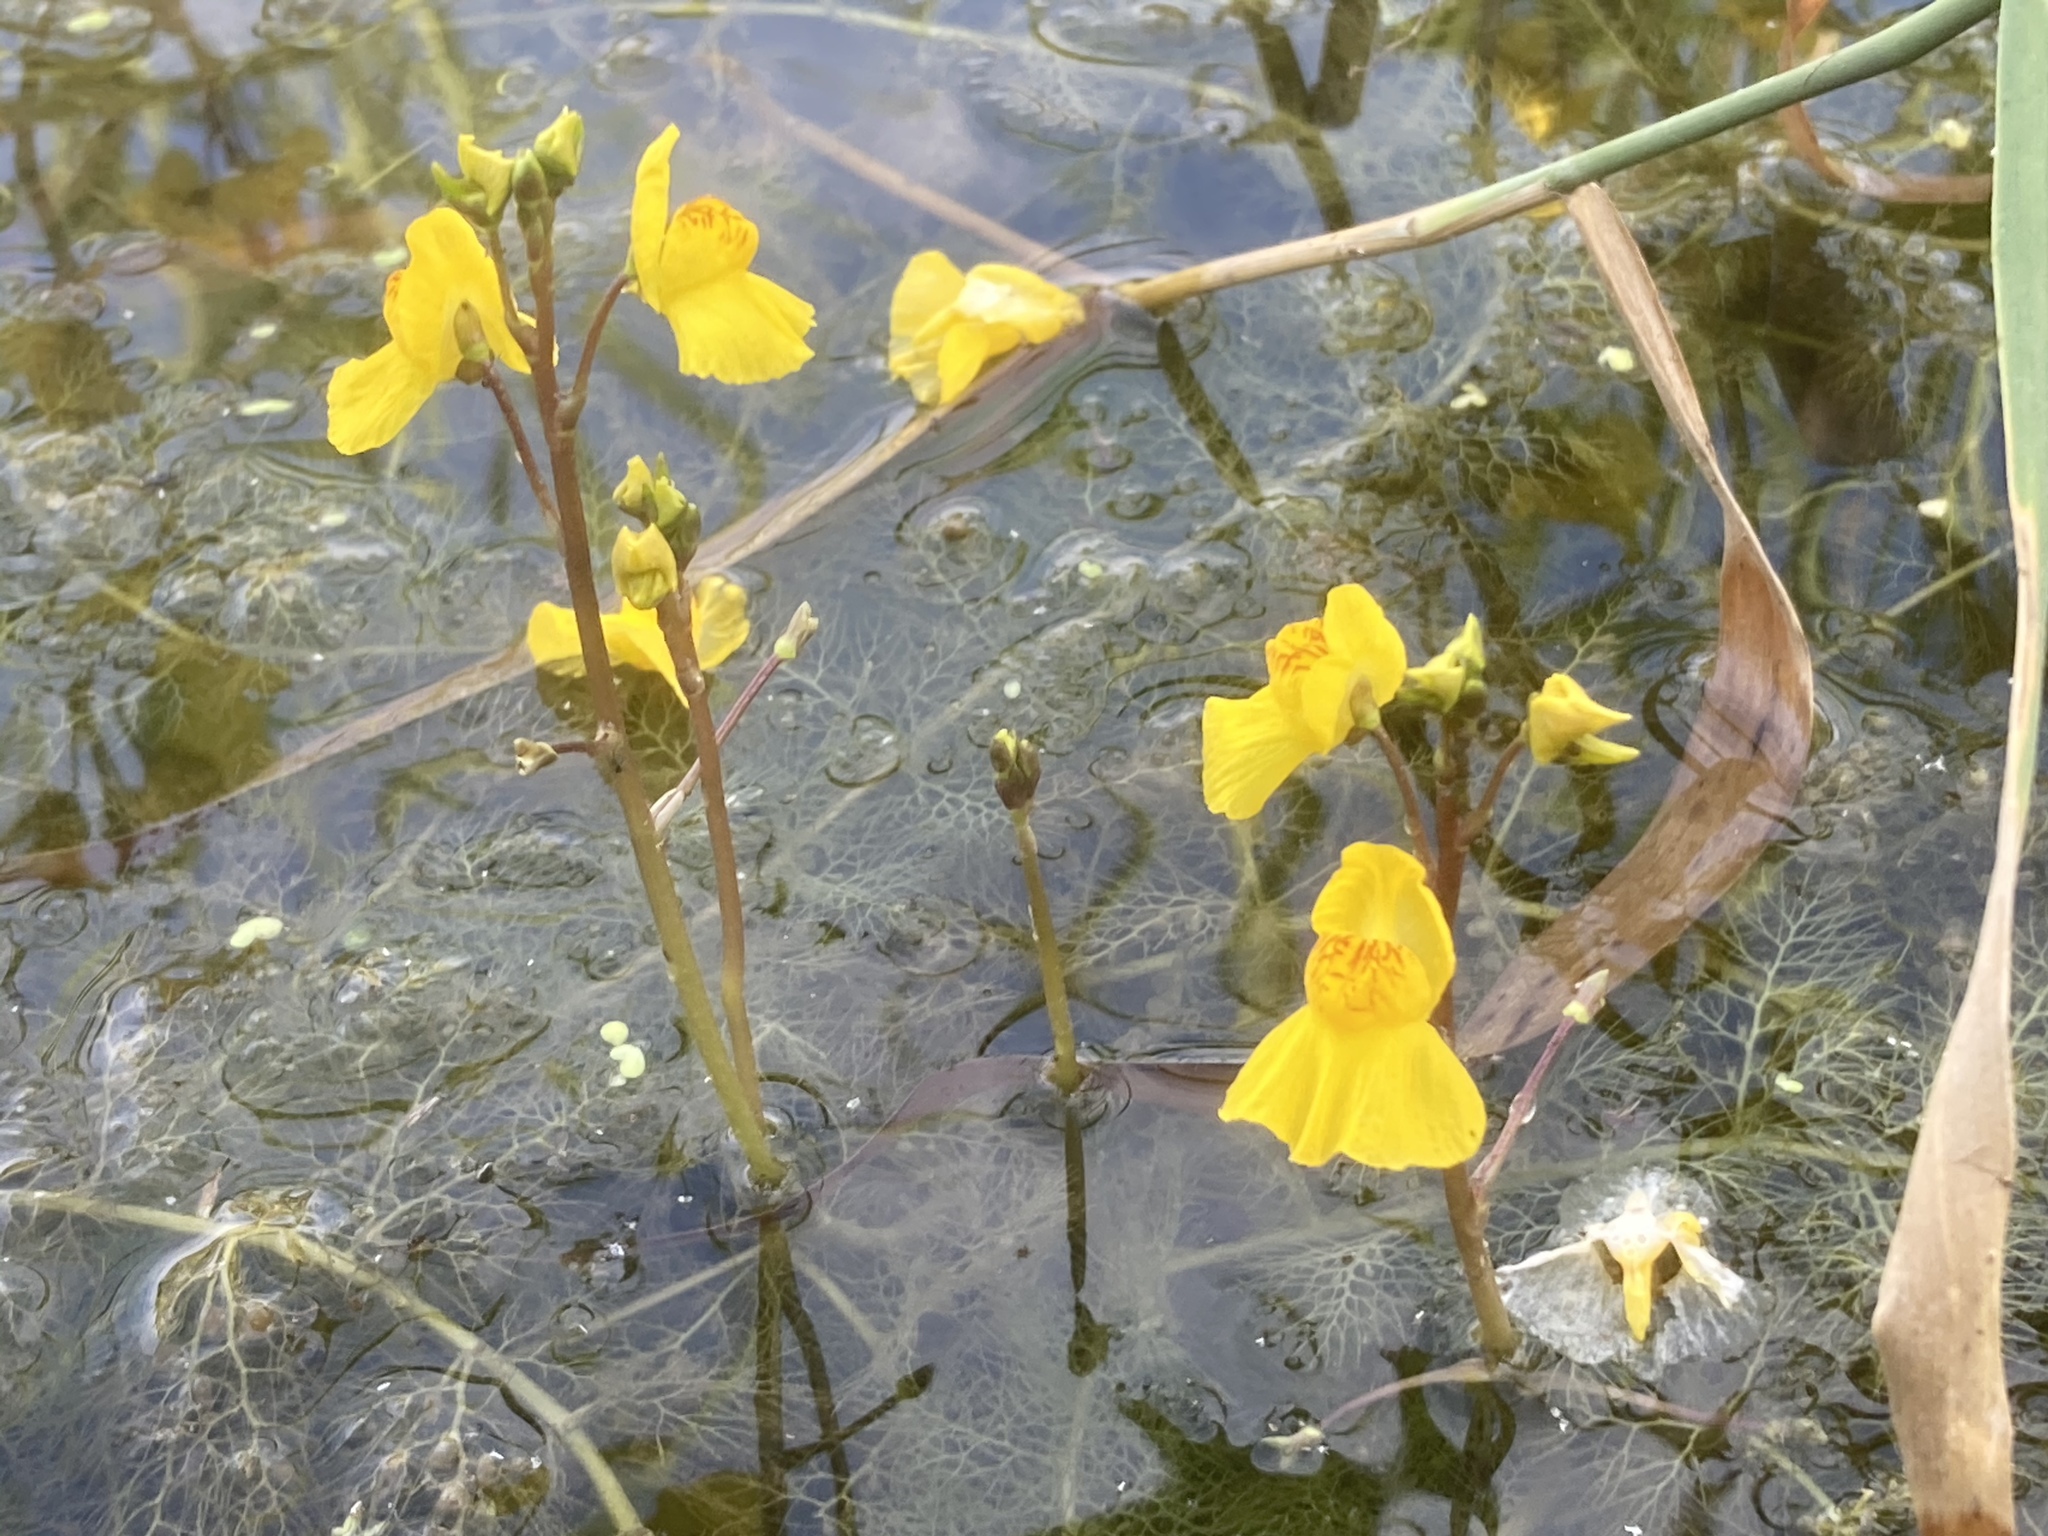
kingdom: Plantae
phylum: Tracheophyta
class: Magnoliopsida
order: Lamiales
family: Lentibulariaceae
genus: Utricularia
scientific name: Utricularia australis
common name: Bladderwort
